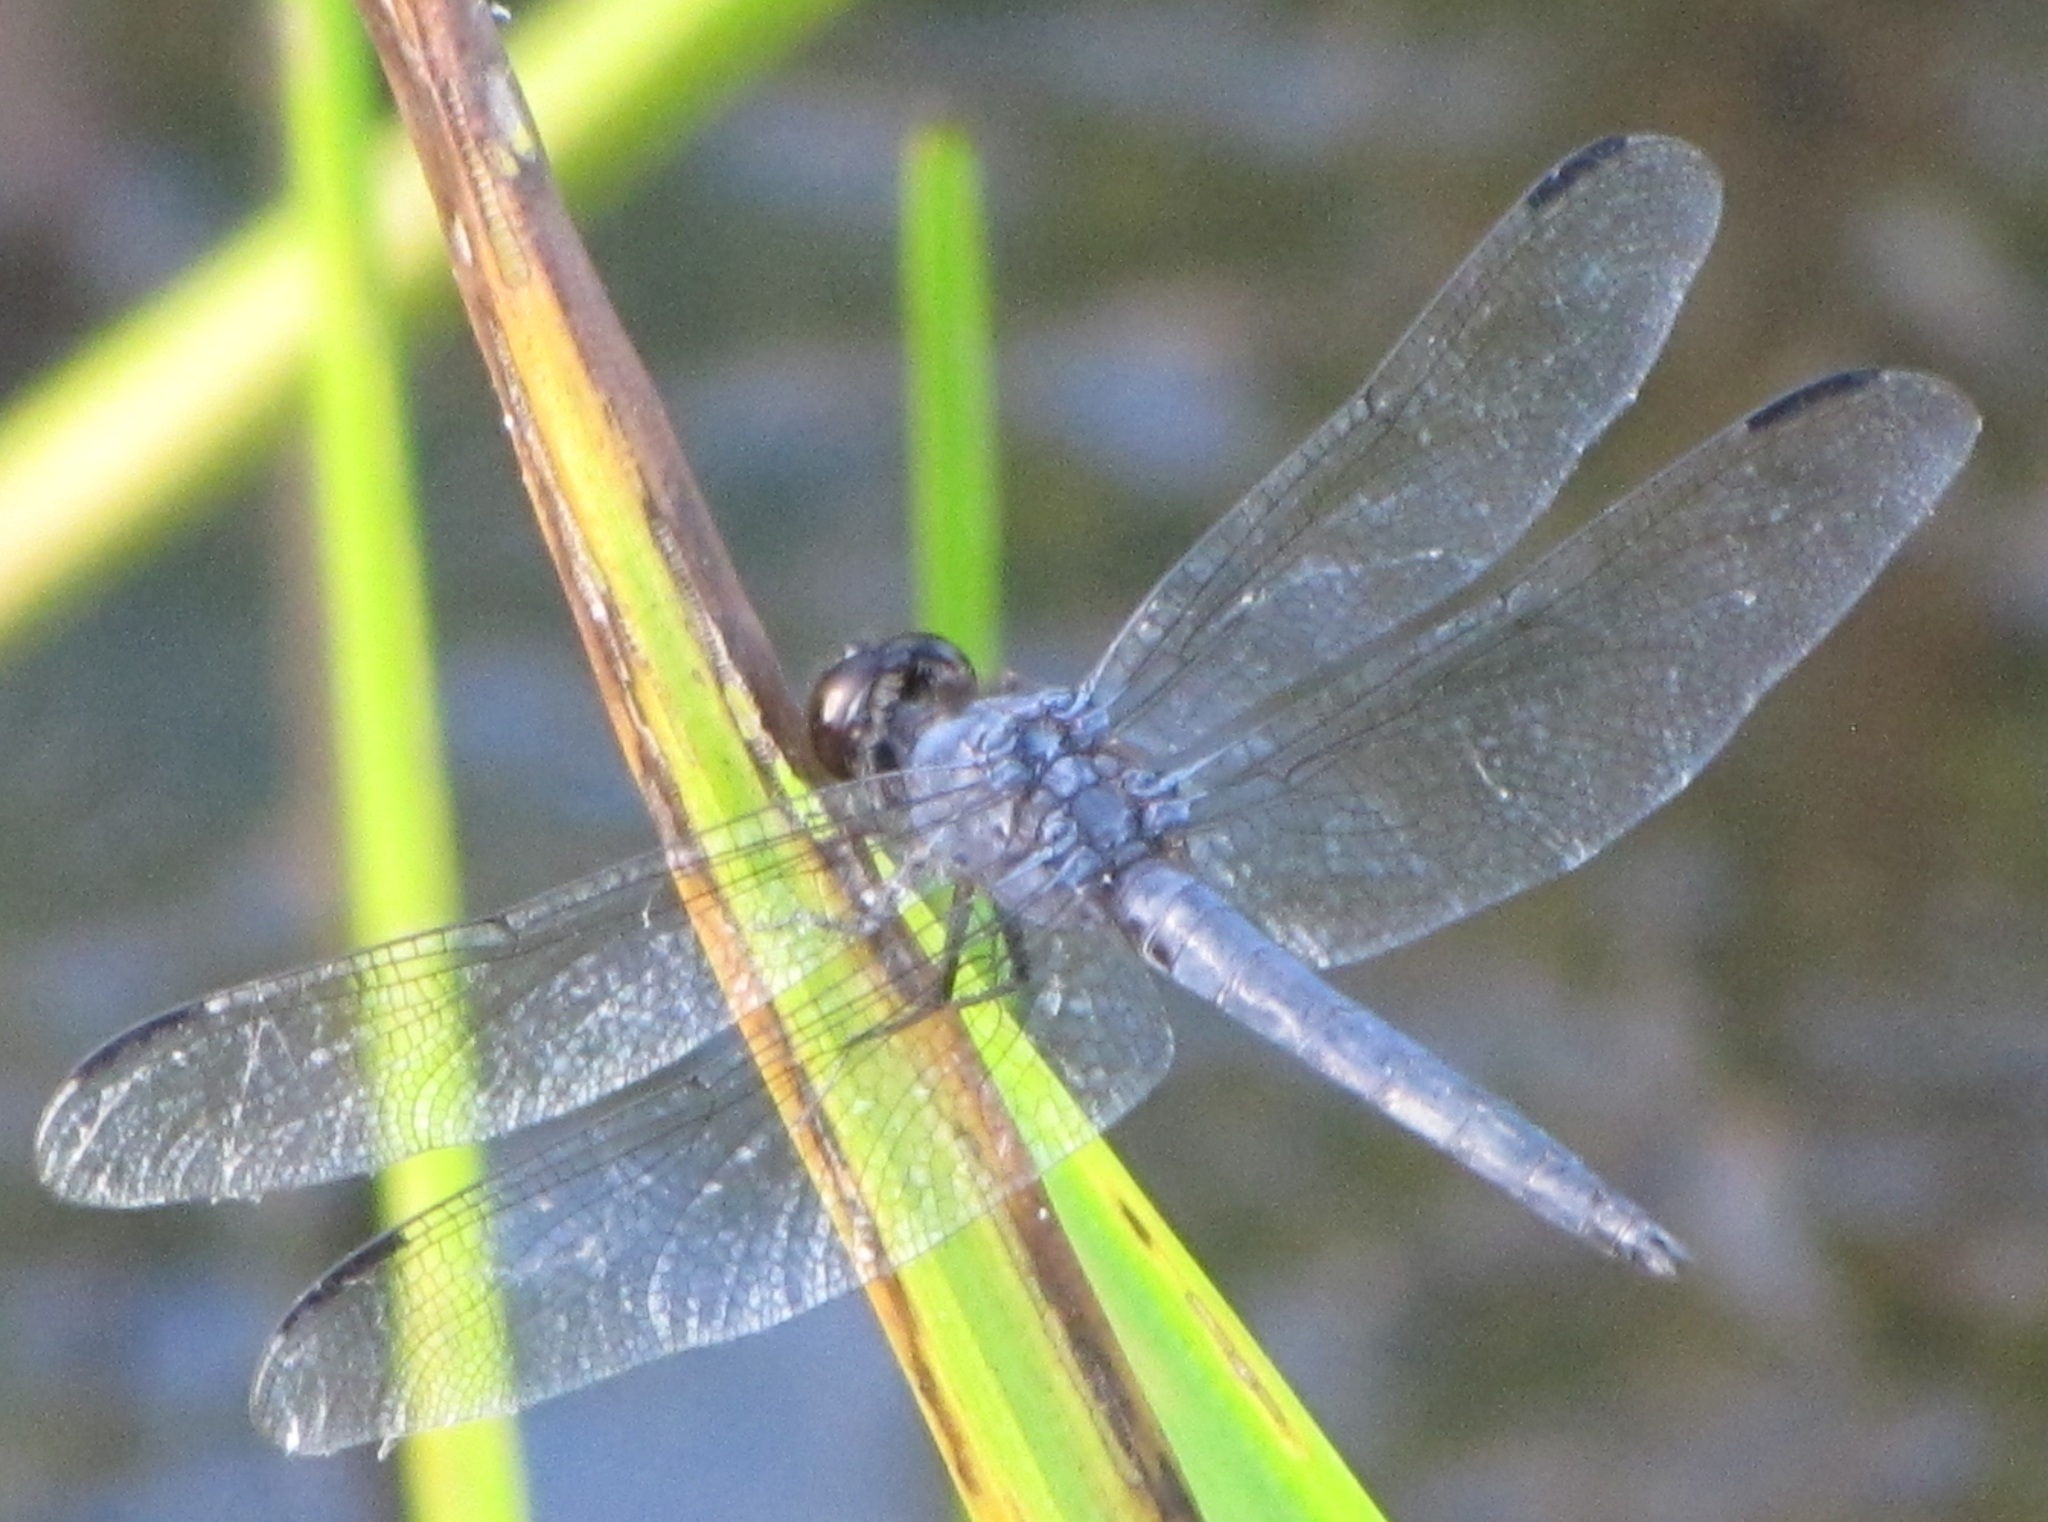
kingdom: Animalia
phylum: Arthropoda
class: Insecta
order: Odonata
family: Libellulidae
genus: Libellula
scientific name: Libellula incesta
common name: Slaty skimmer
